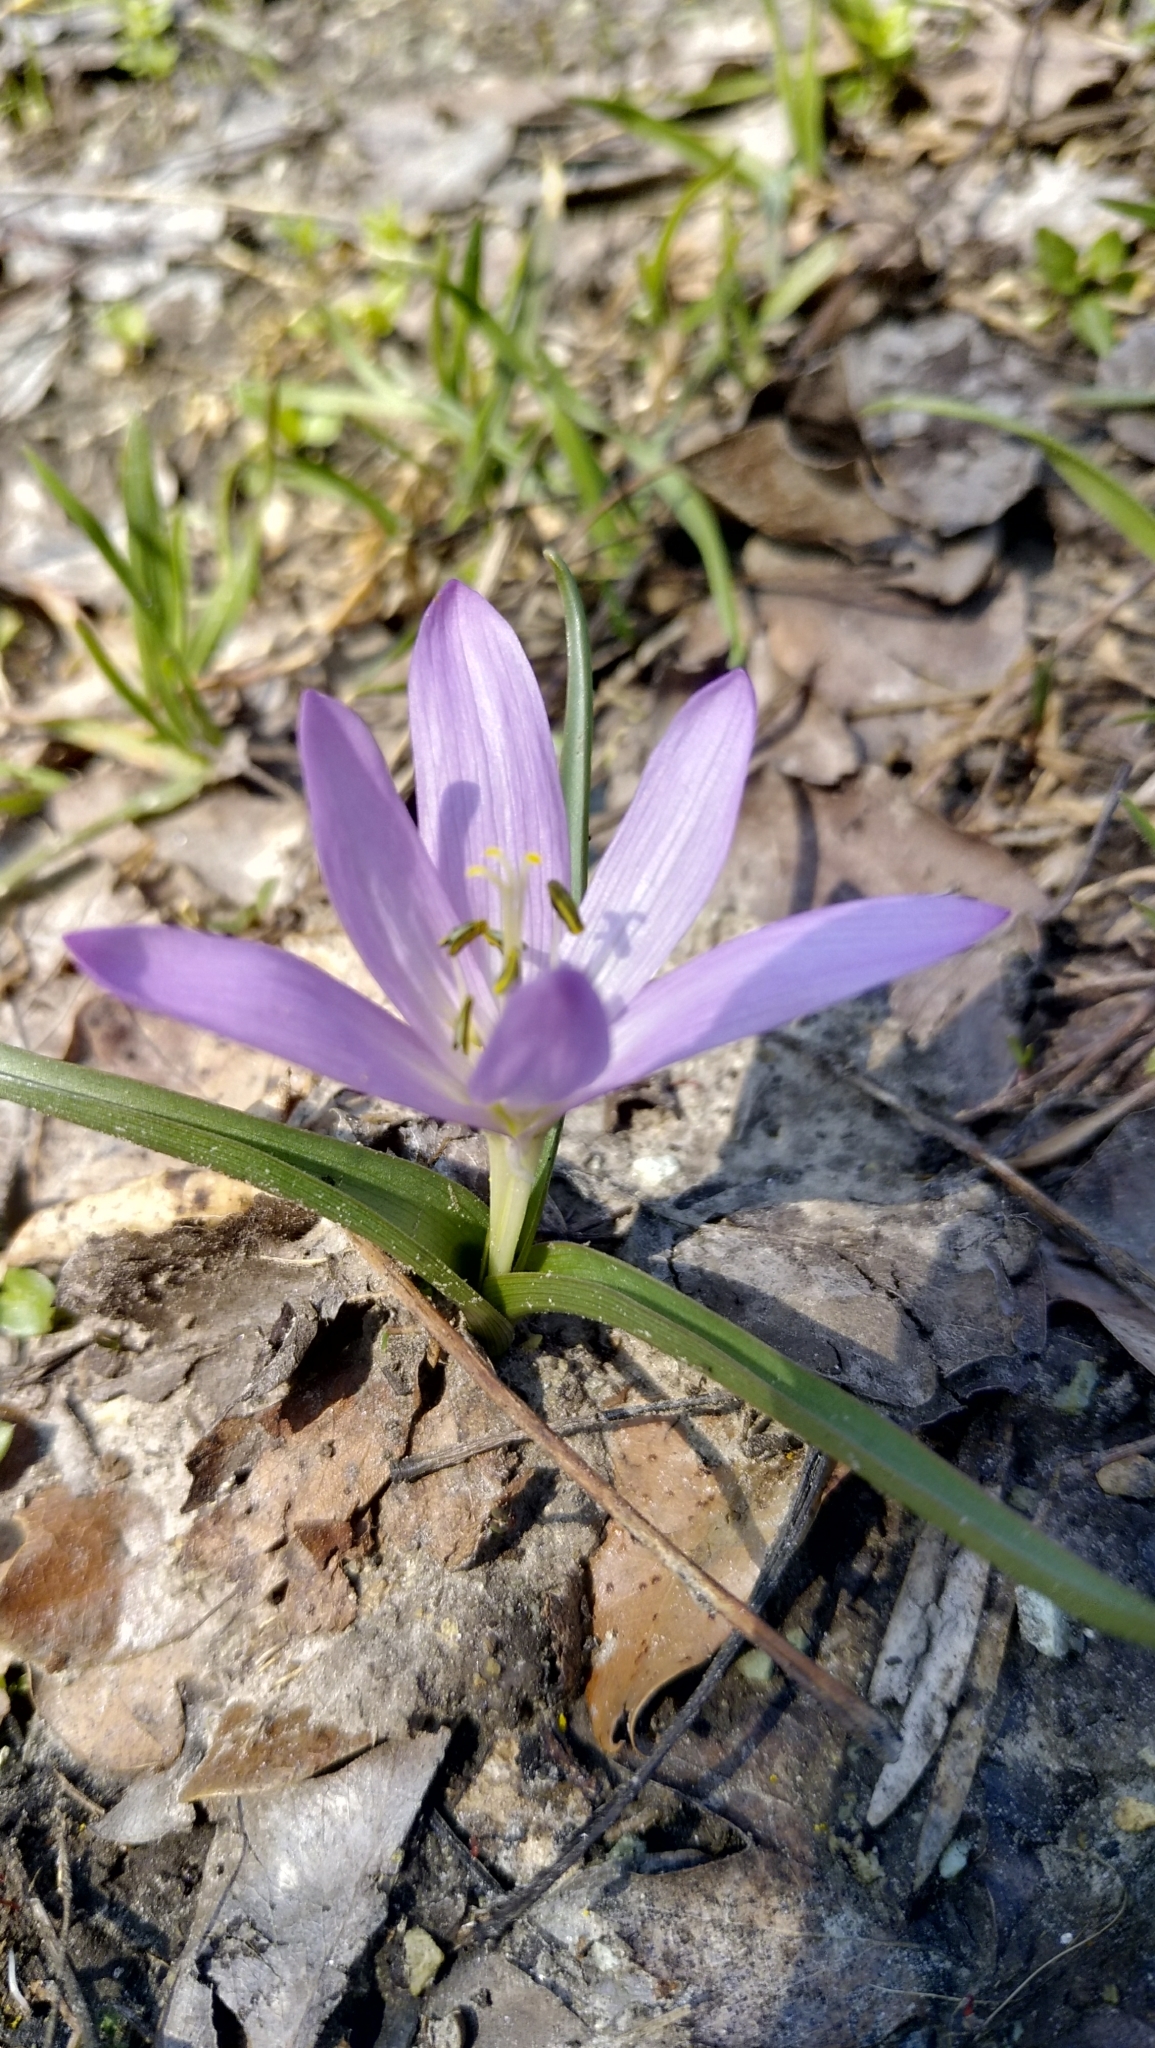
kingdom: Plantae
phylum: Tracheophyta
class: Liliopsida
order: Liliales
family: Colchicaceae
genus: Colchicum
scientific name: Colchicum bulbocodium
